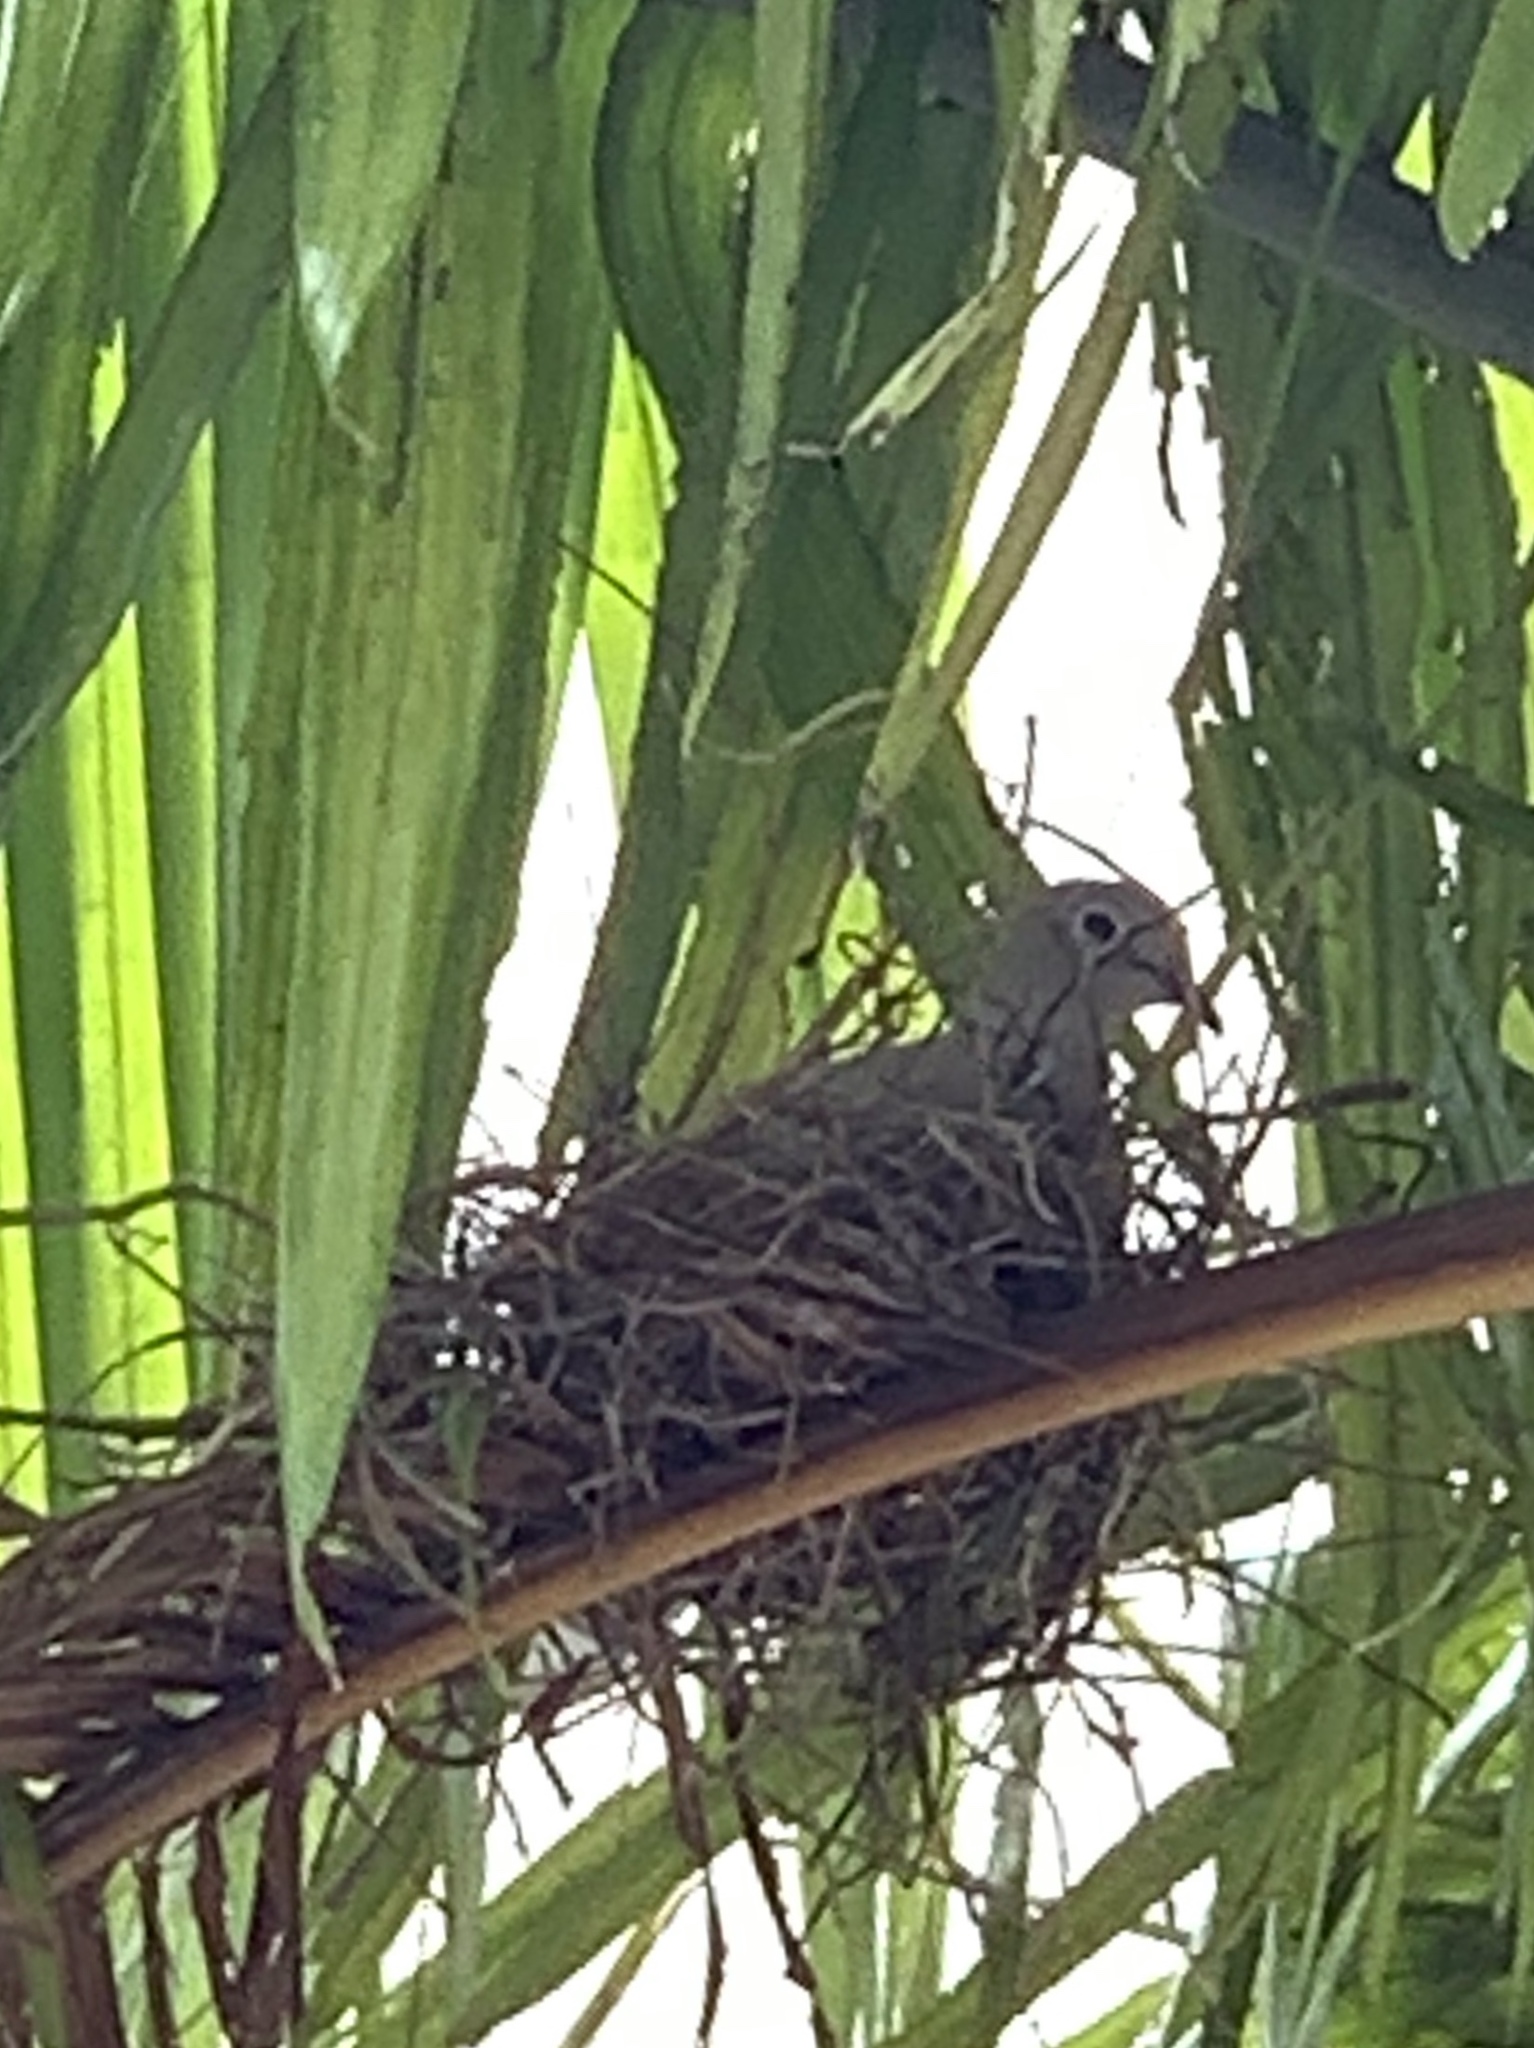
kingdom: Animalia
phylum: Chordata
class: Aves
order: Columbiformes
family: Columbidae
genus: Streptopelia
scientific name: Streptopelia decaocto
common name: Eurasian collared dove
